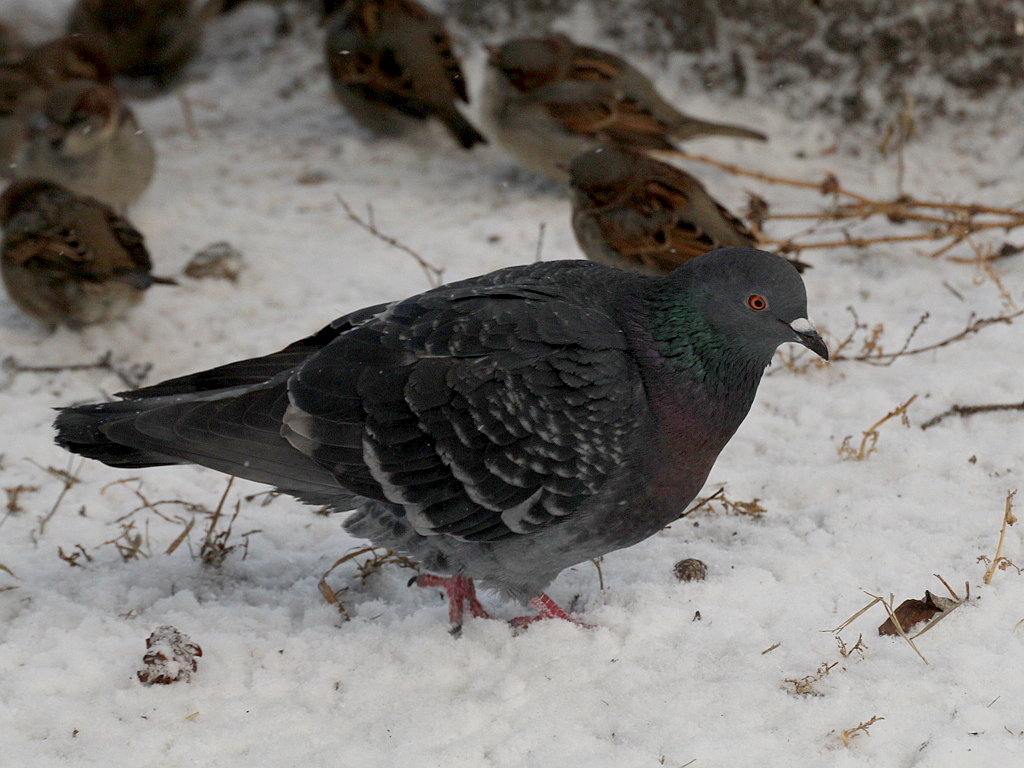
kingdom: Animalia
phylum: Chordata
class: Aves
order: Columbiformes
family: Columbidae
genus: Columba
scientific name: Columba livia
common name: Rock pigeon
